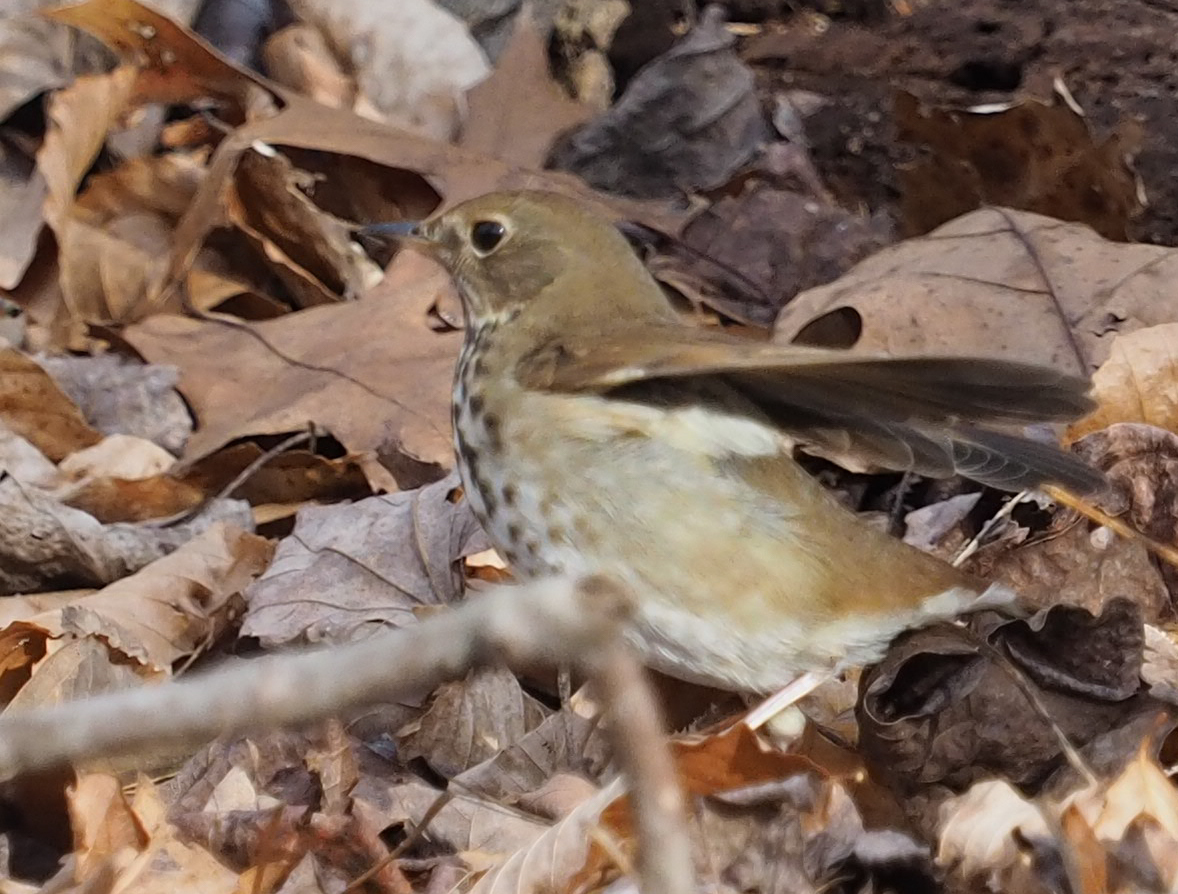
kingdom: Animalia
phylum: Chordata
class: Aves
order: Passeriformes
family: Turdidae
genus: Catharus
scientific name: Catharus guttatus
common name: Hermit thrush
